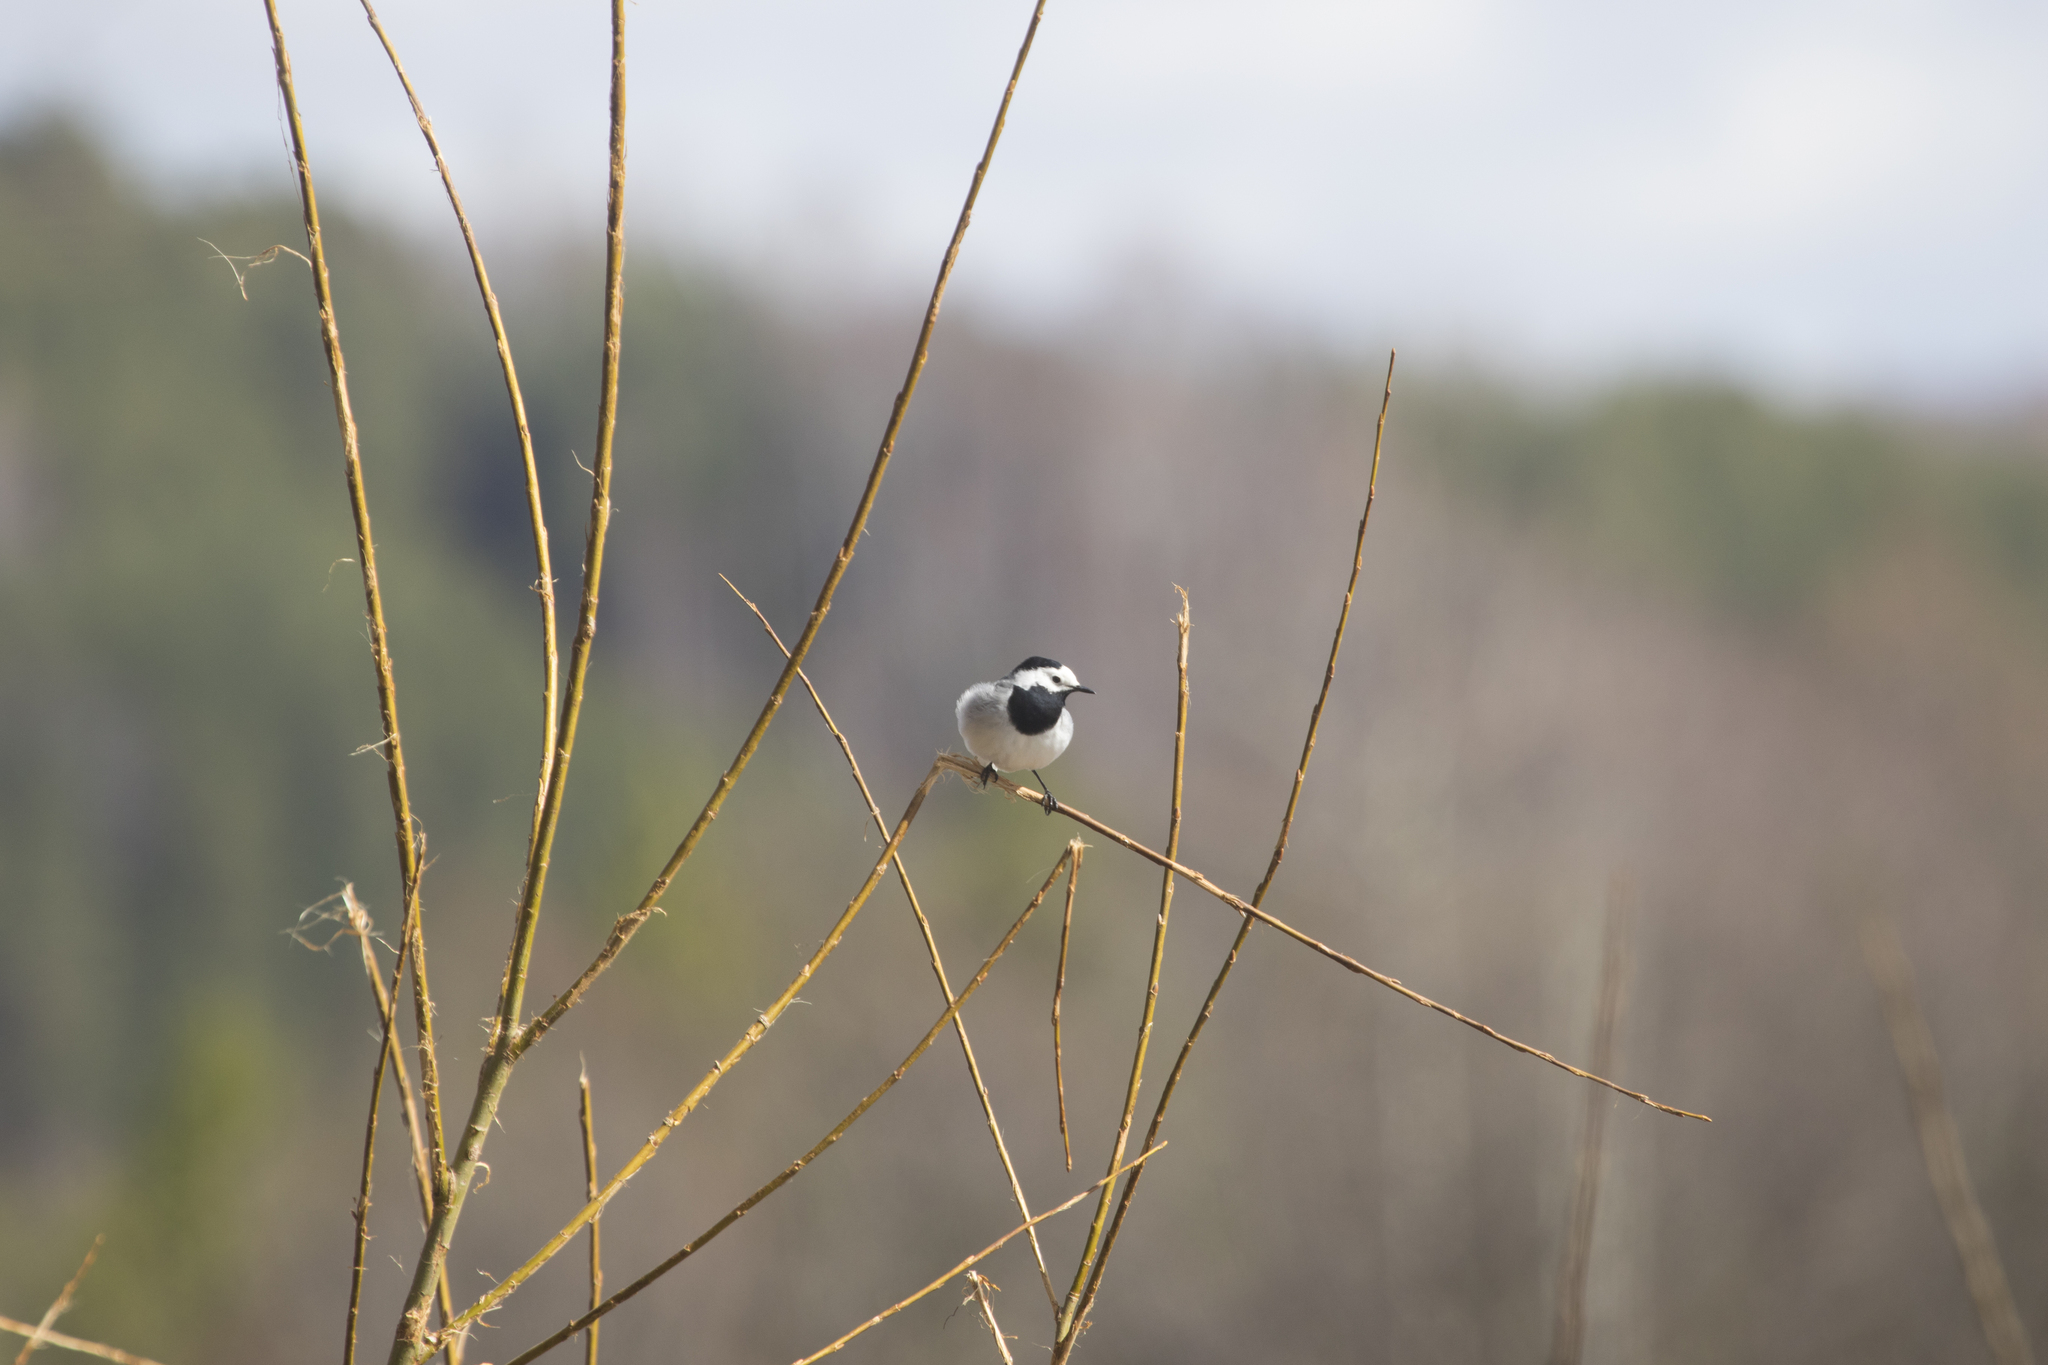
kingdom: Animalia
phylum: Chordata
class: Aves
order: Passeriformes
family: Motacillidae
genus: Motacilla
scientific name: Motacilla alba
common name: White wagtail
